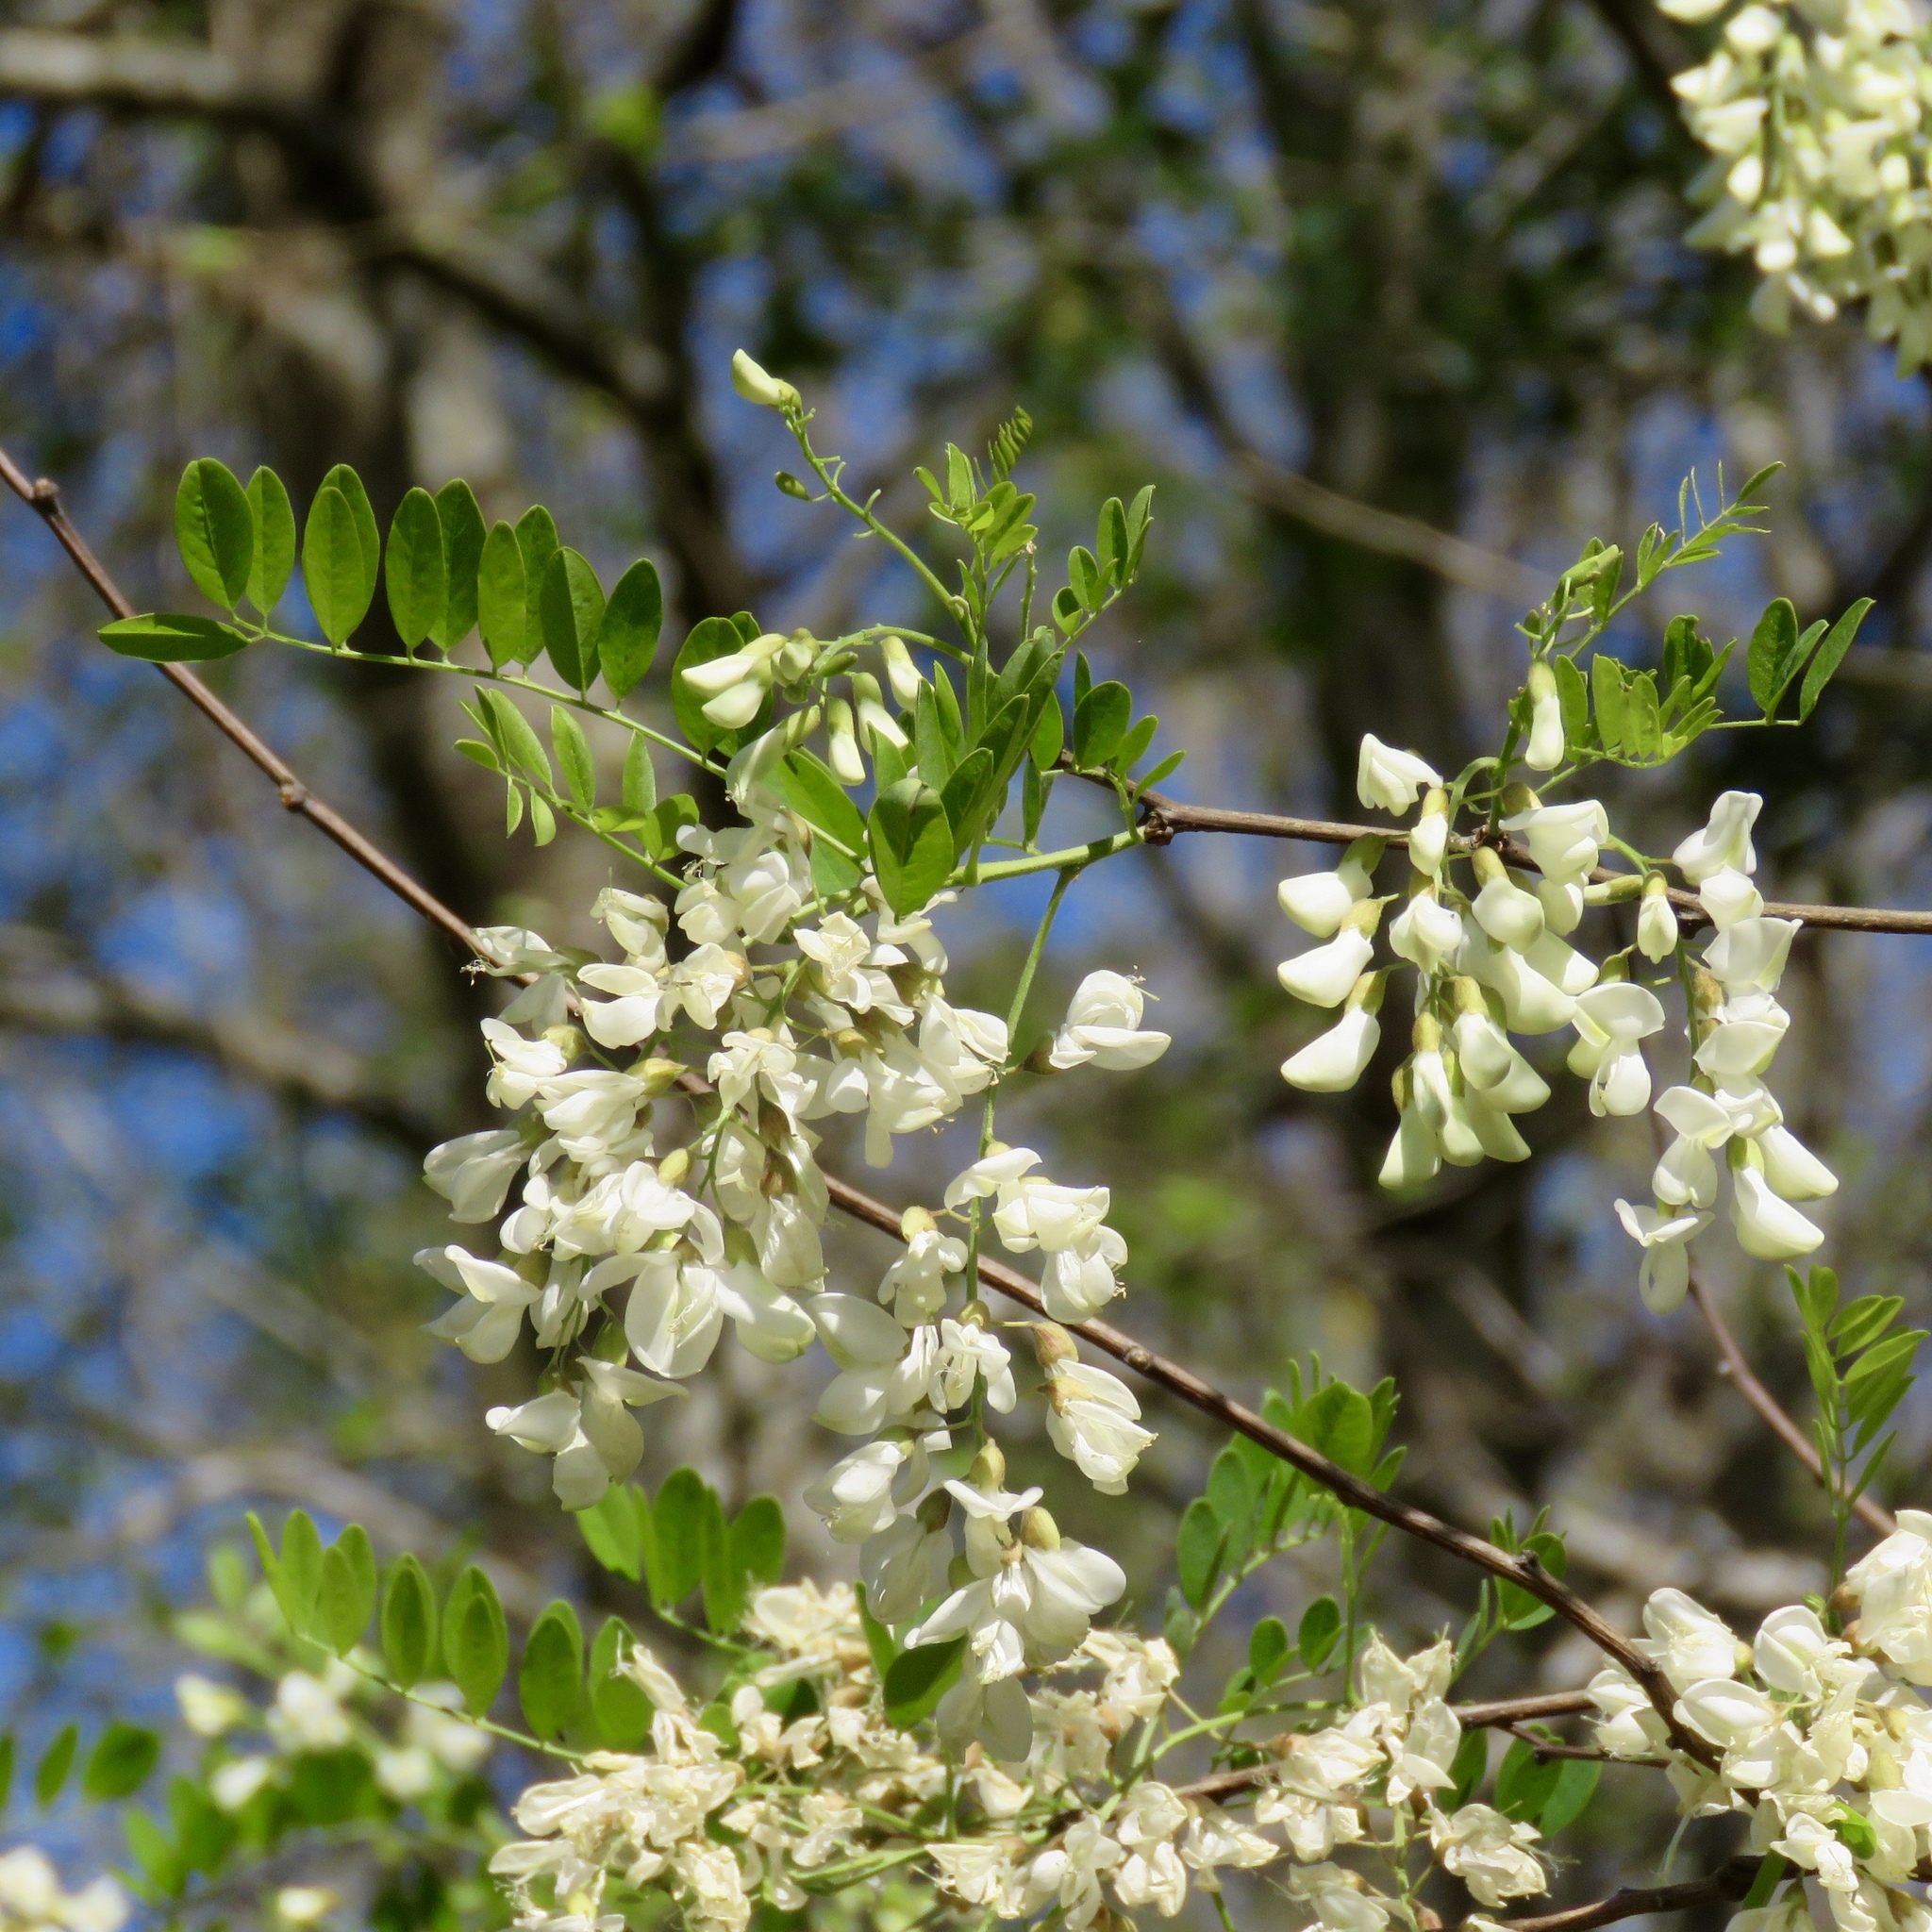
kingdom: Plantae
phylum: Tracheophyta
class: Magnoliopsida
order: Fabales
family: Fabaceae
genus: Robinia
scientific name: Robinia pseudoacacia
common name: Black locust
